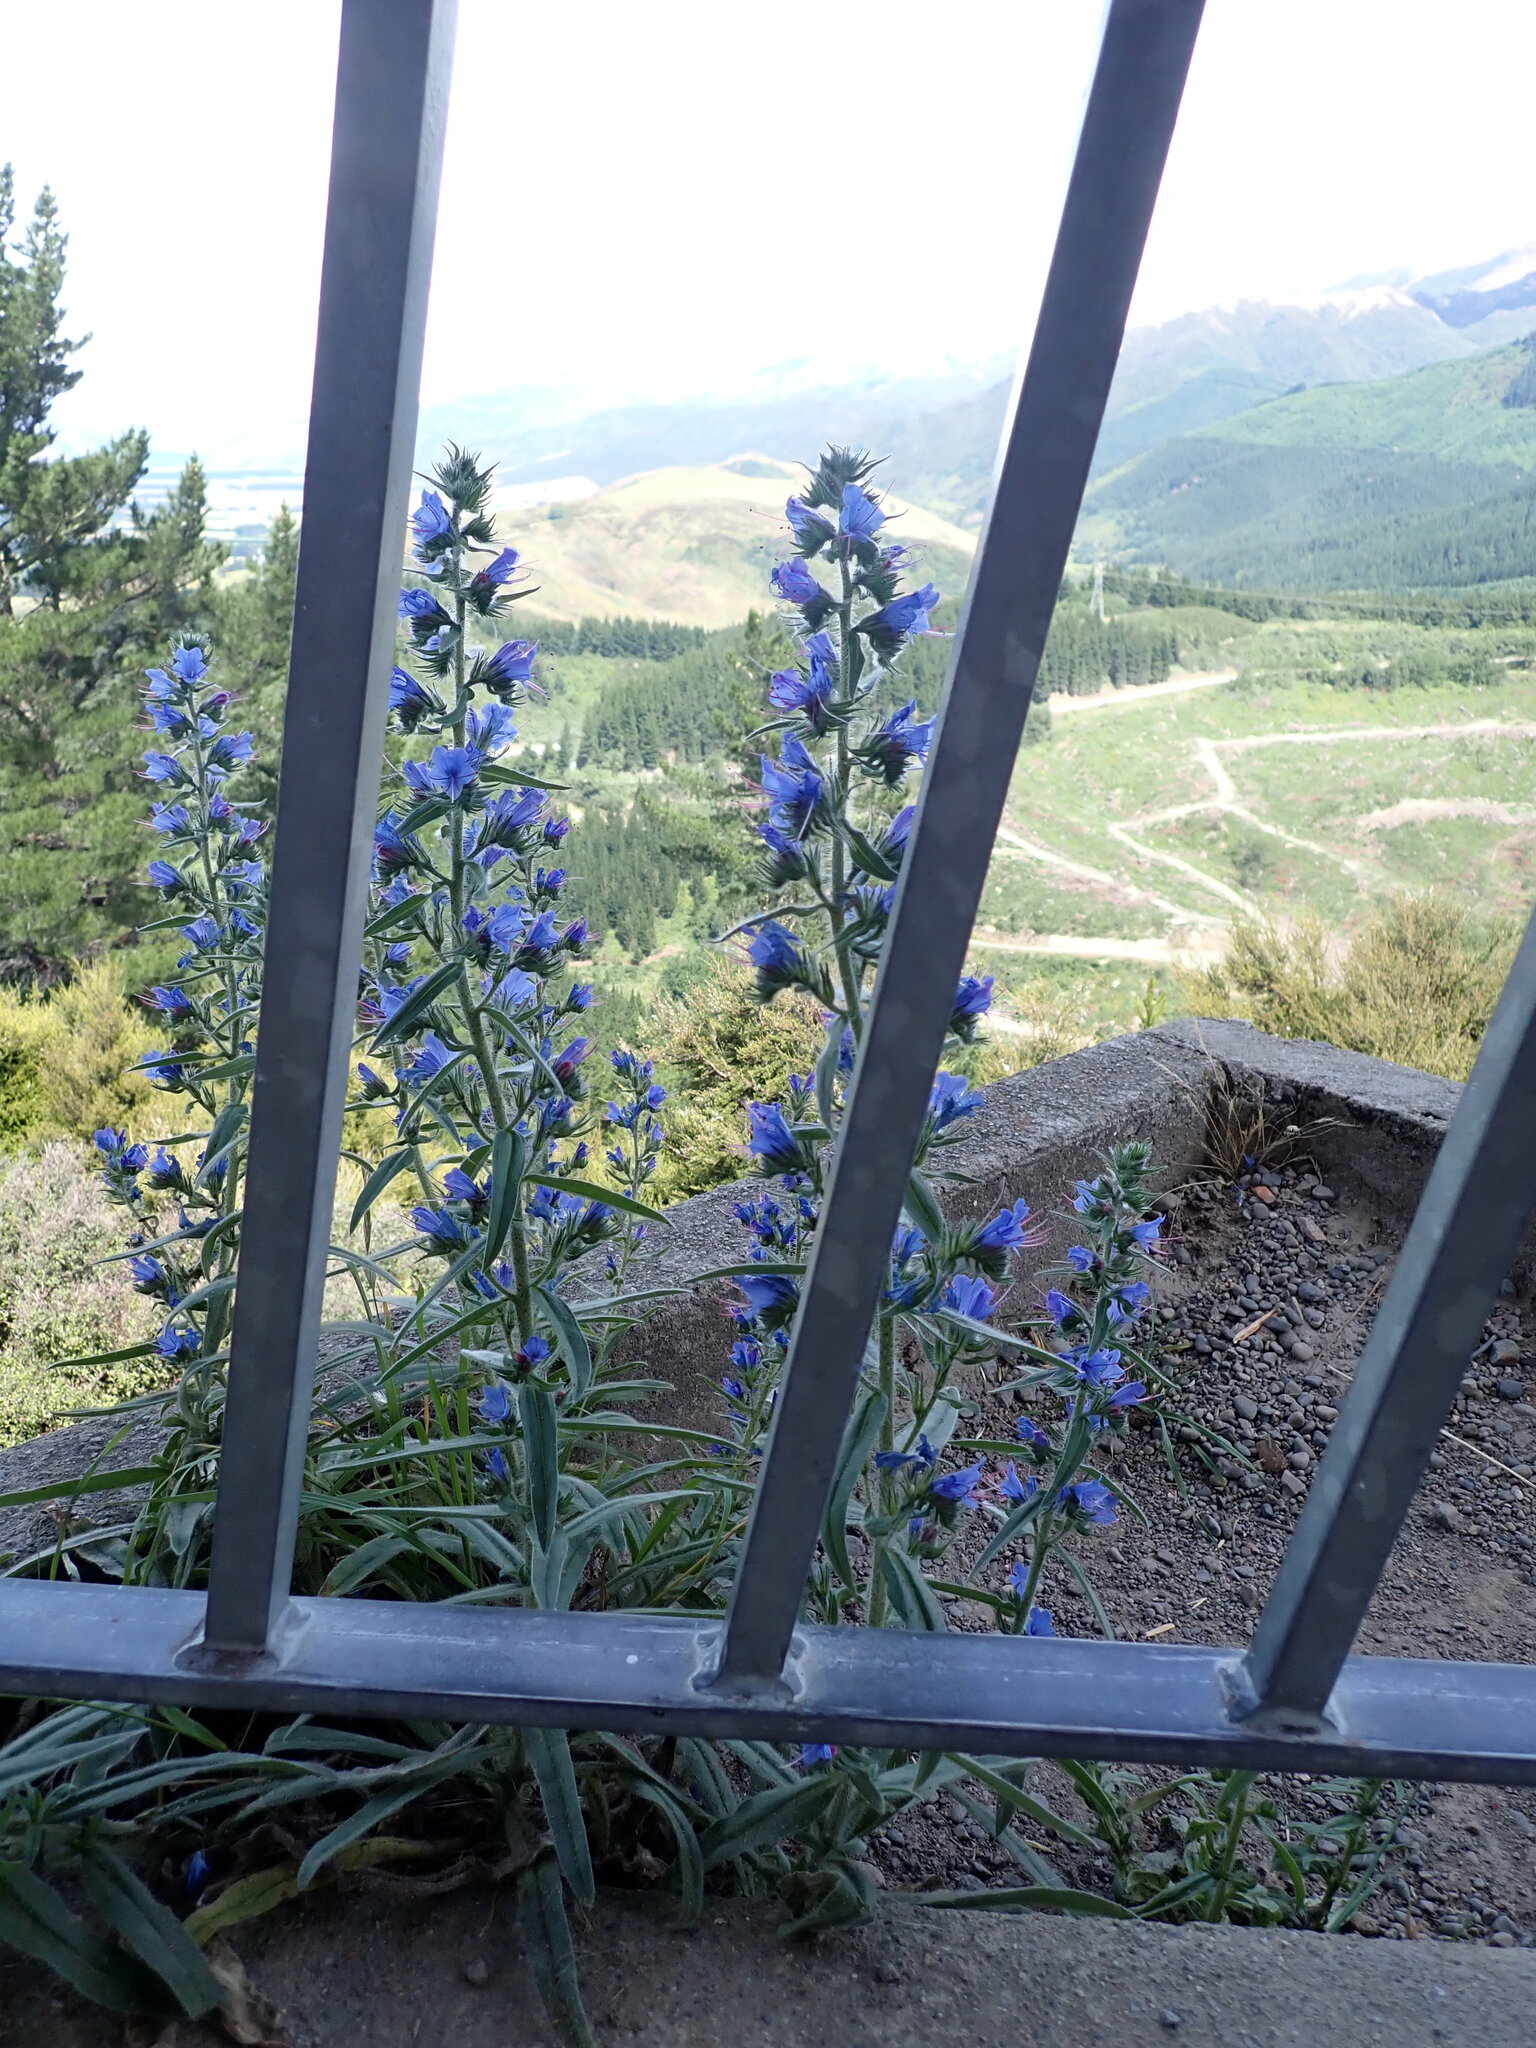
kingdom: Plantae
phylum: Tracheophyta
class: Magnoliopsida
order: Boraginales
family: Boraginaceae
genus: Echium
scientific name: Echium vulgare
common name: Common viper's bugloss
